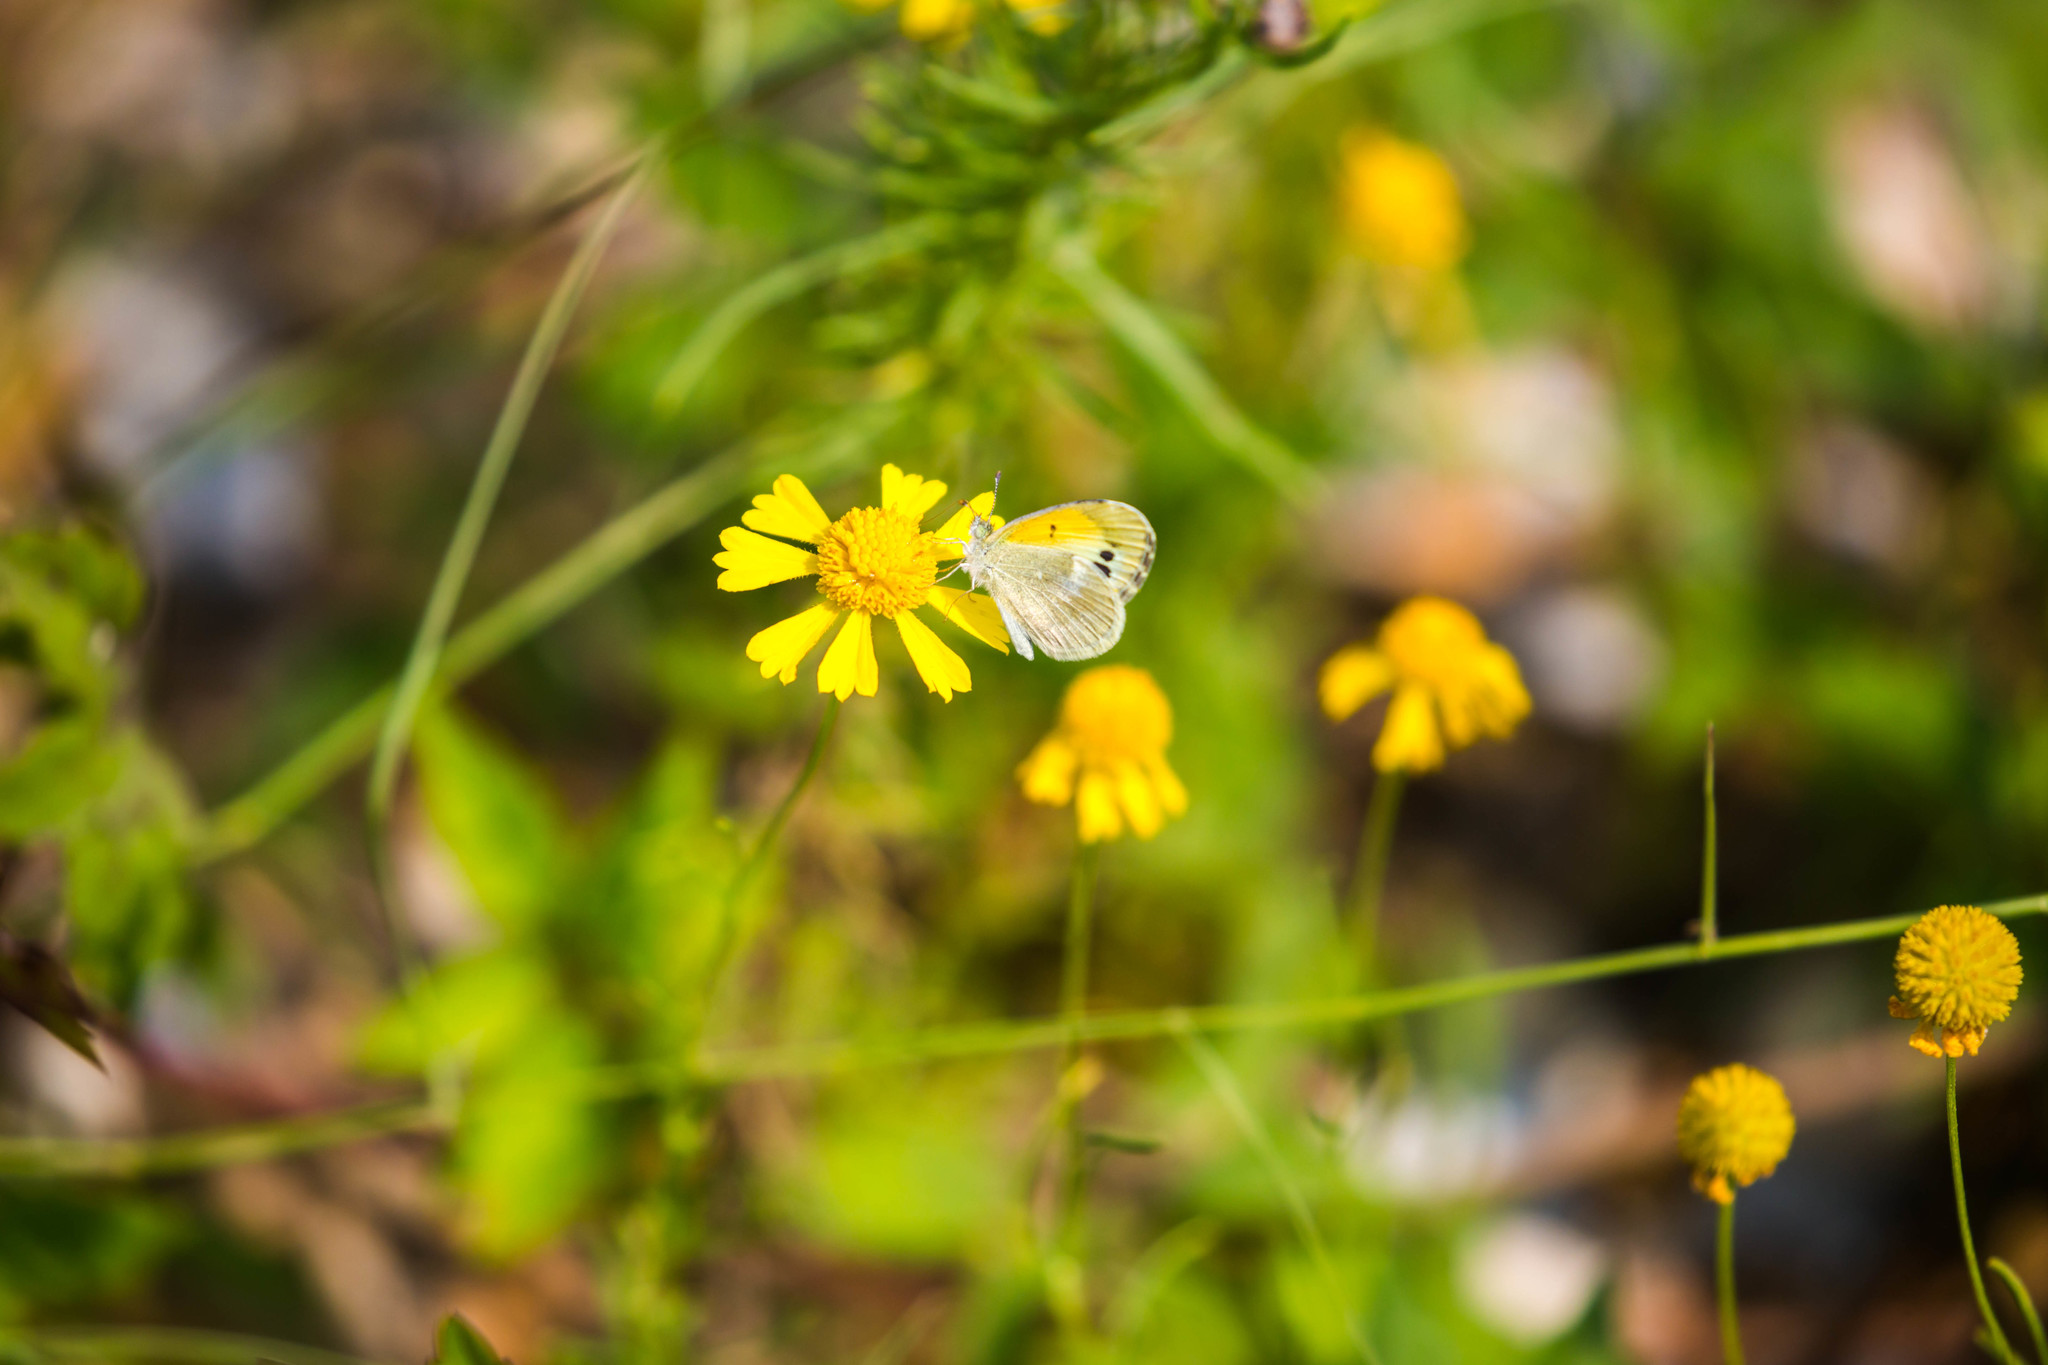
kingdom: Animalia
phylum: Arthropoda
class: Insecta
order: Lepidoptera
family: Pieridae
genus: Nathalis
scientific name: Nathalis iole
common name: Dainty sulphur
